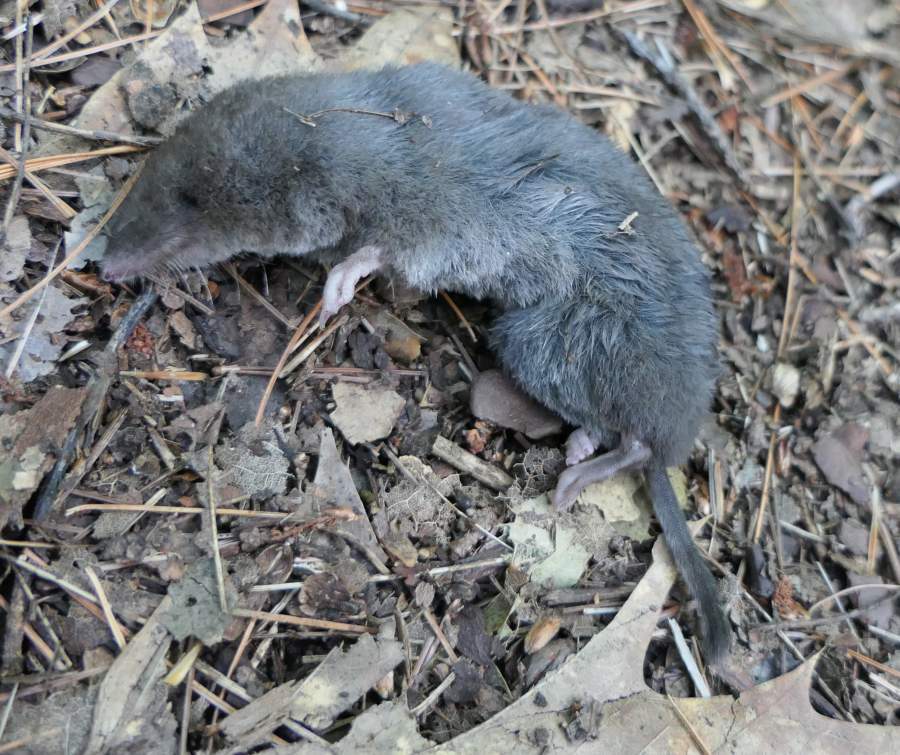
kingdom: Animalia
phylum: Chordata
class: Mammalia
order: Soricomorpha
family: Soricidae
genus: Blarina
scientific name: Blarina brevicauda
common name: Northern short-tailed shrew
